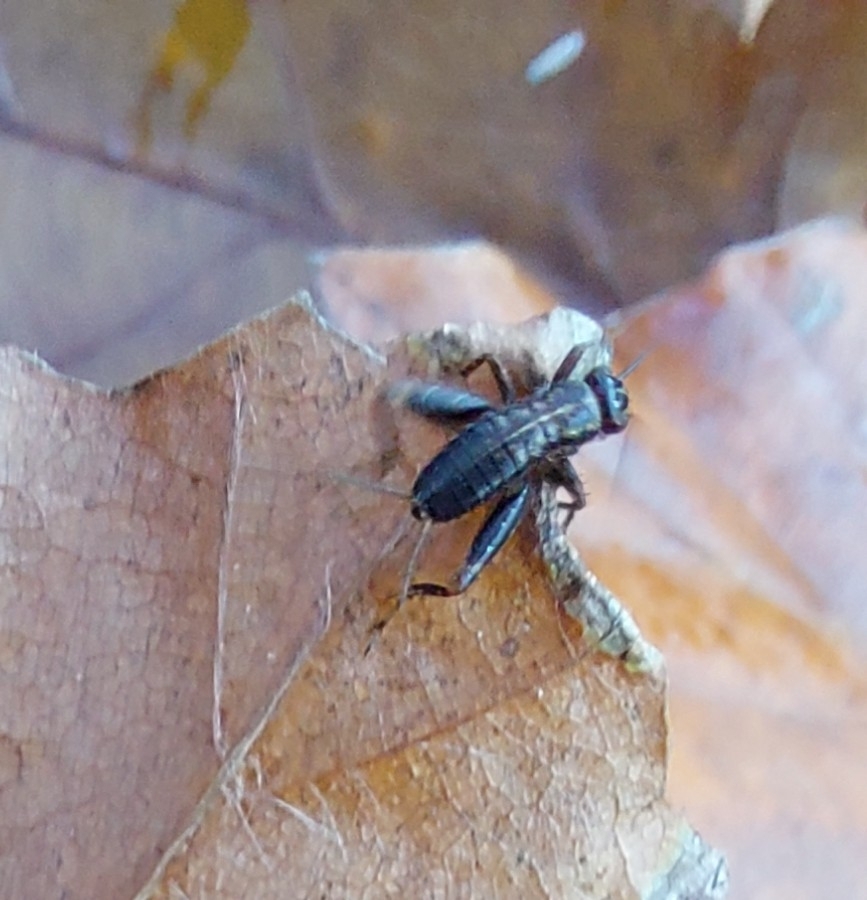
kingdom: Animalia
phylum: Arthropoda
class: Insecta
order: Orthoptera
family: Trigonidiidae
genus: Nemobius
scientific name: Nemobius sylvestris
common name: Wood-cricket
